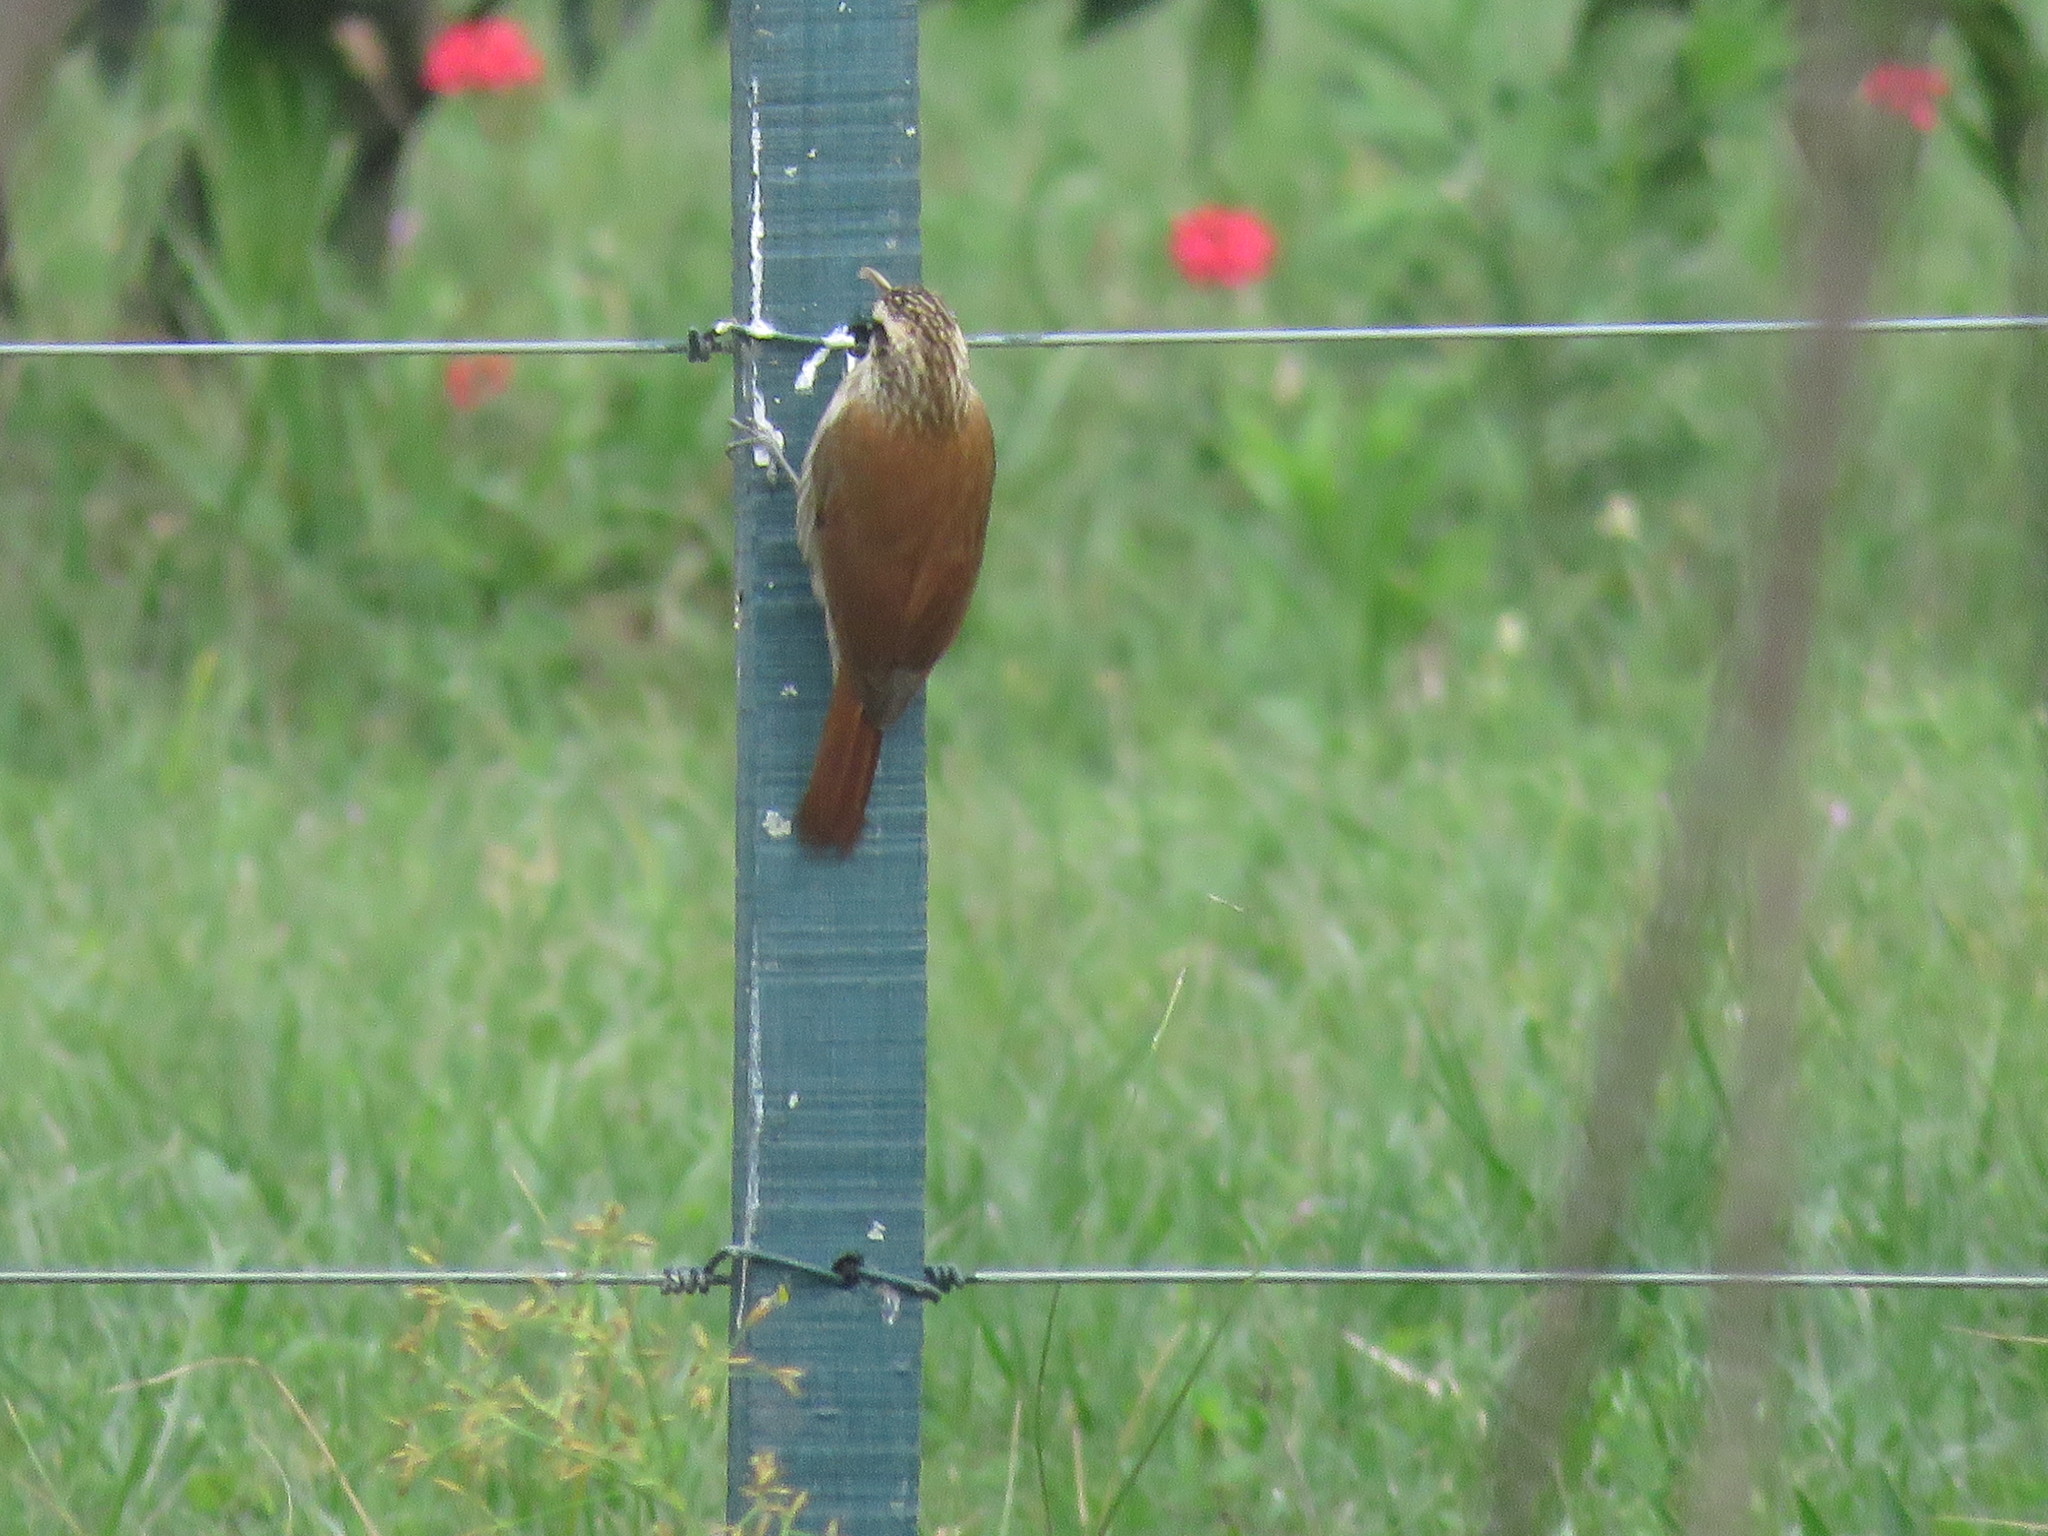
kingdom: Animalia
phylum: Chordata
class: Aves
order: Passeriformes
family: Furnariidae
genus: Lepidocolaptes
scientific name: Lepidocolaptes angustirostris
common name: Narrow-billed woodcreeper
